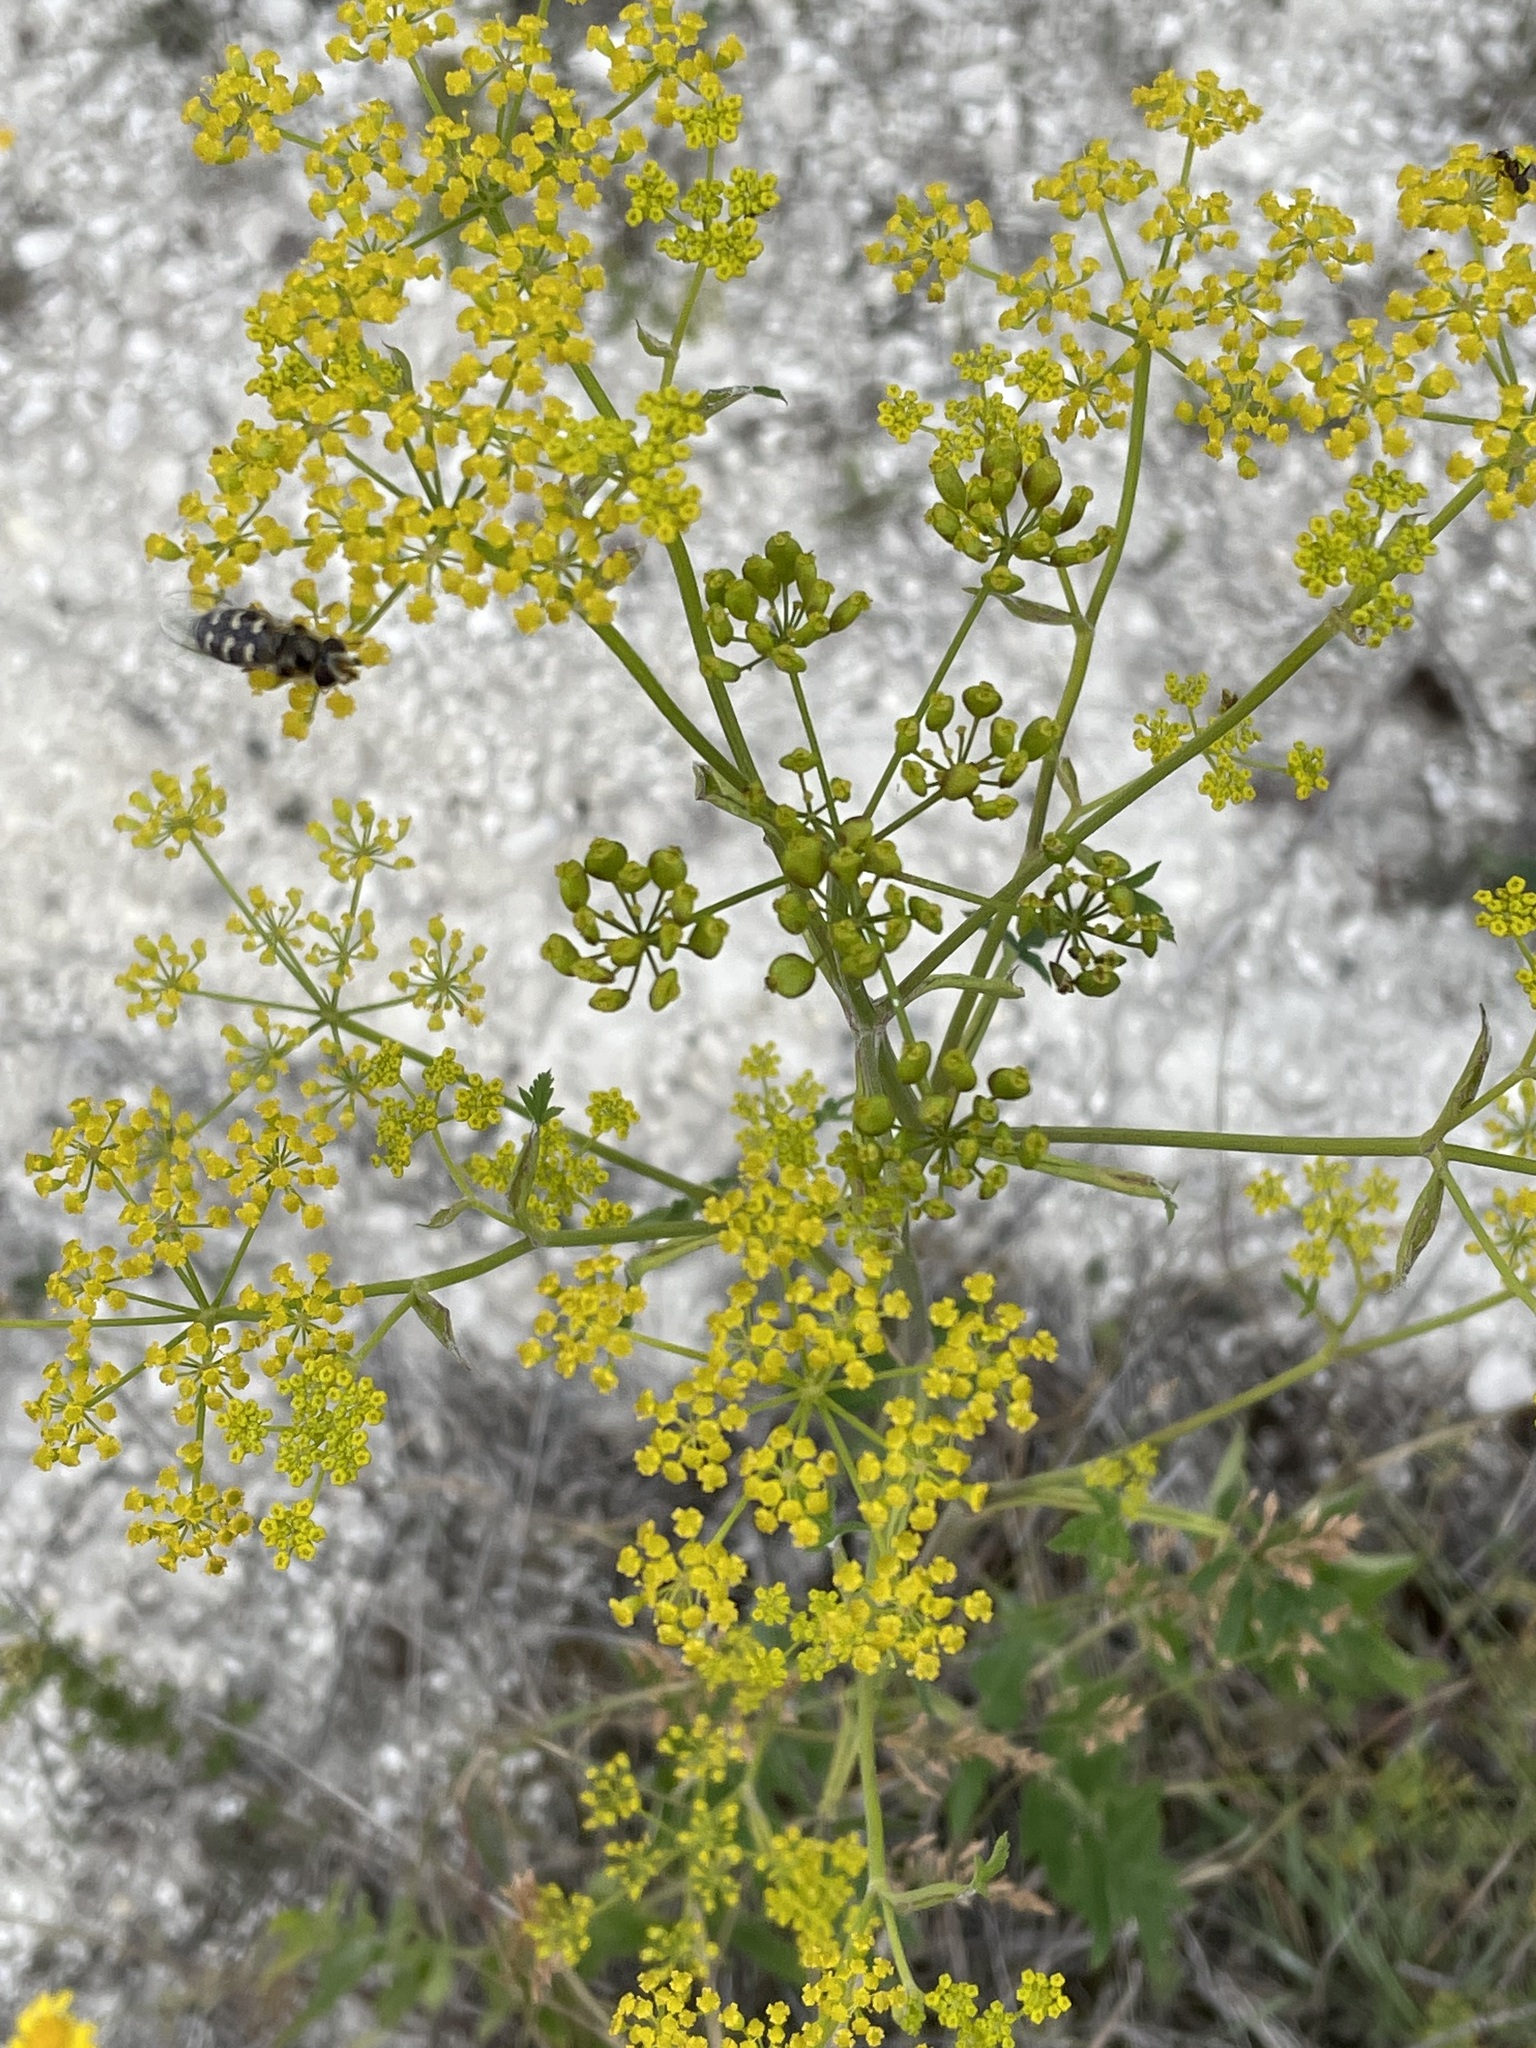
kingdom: Plantae
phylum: Tracheophyta
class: Magnoliopsida
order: Apiales
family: Apiaceae
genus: Pastinaca
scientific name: Pastinaca sativa
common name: Wild parsnip
